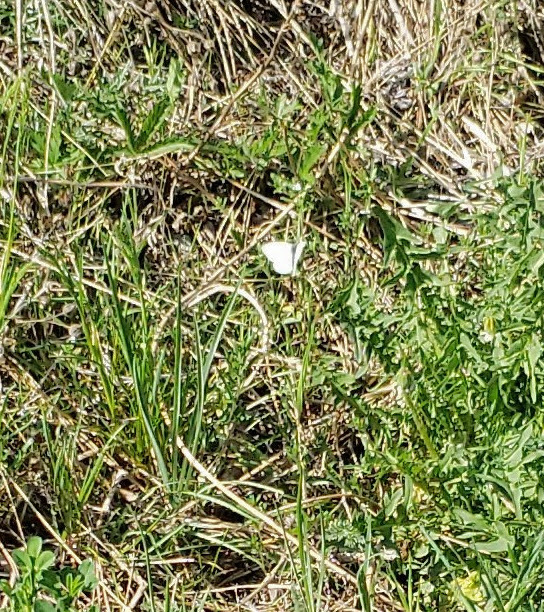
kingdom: Animalia
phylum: Arthropoda
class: Insecta
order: Lepidoptera
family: Pieridae
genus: Pieris
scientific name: Pieris rapae
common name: Small white
